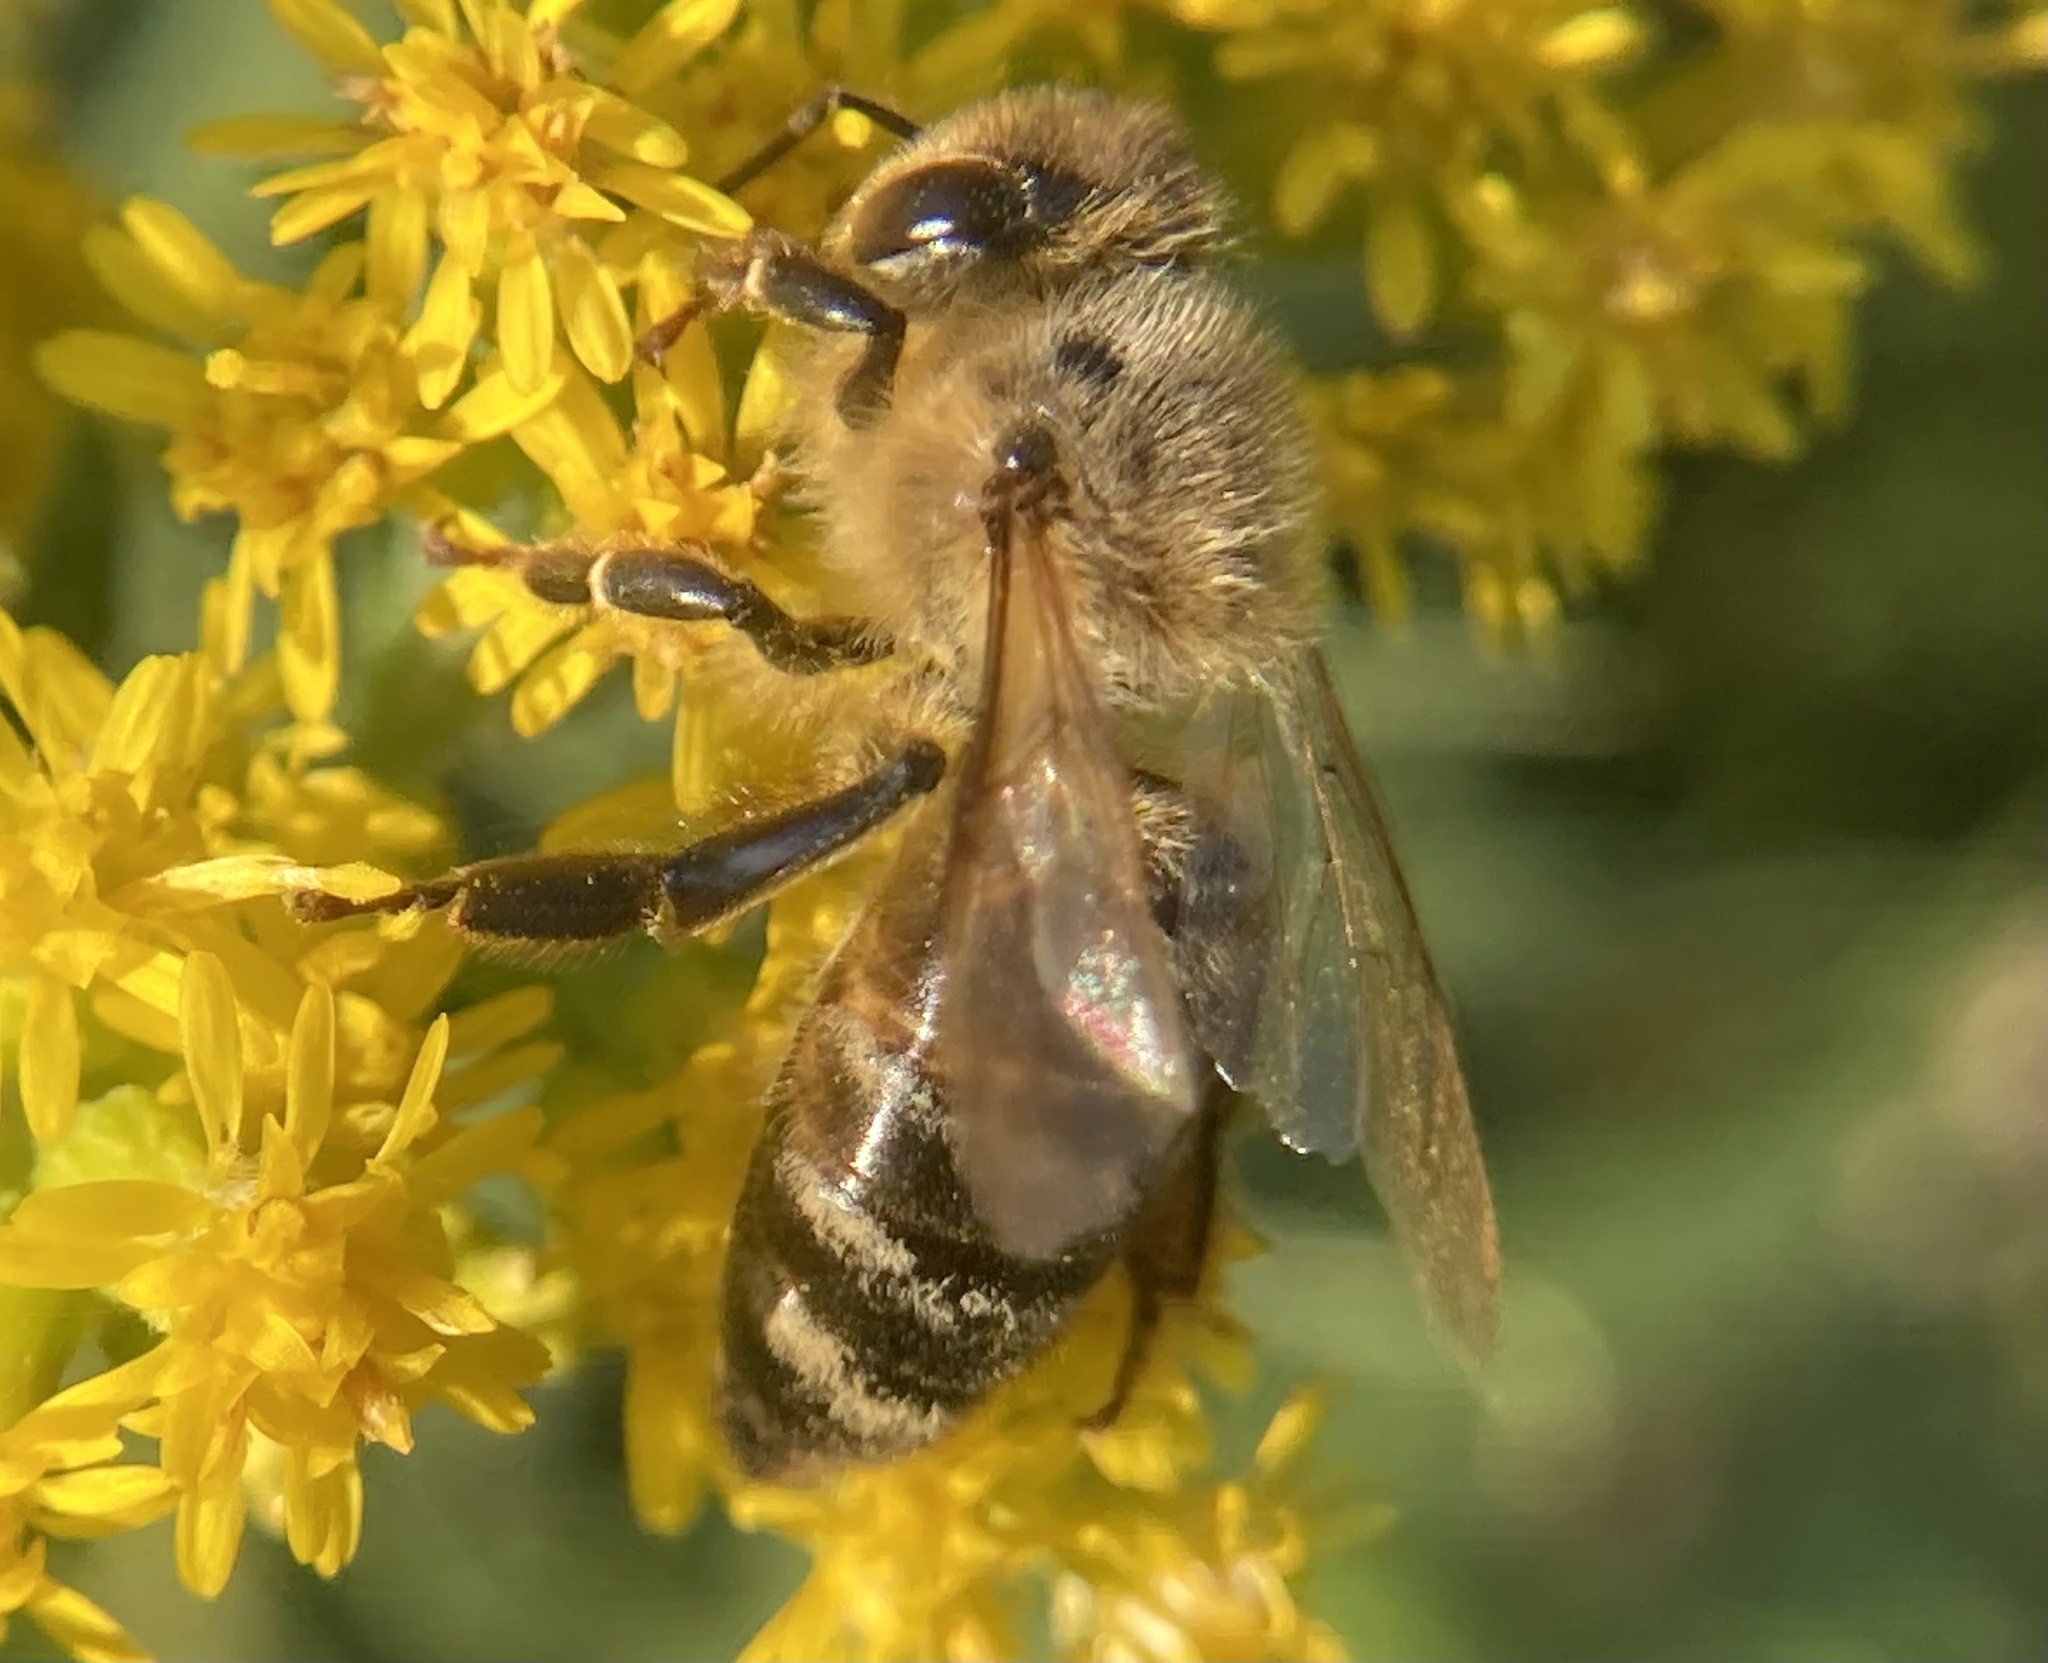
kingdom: Animalia
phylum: Arthropoda
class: Insecta
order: Hymenoptera
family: Apidae
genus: Apis
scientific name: Apis mellifera
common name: Honey bee
